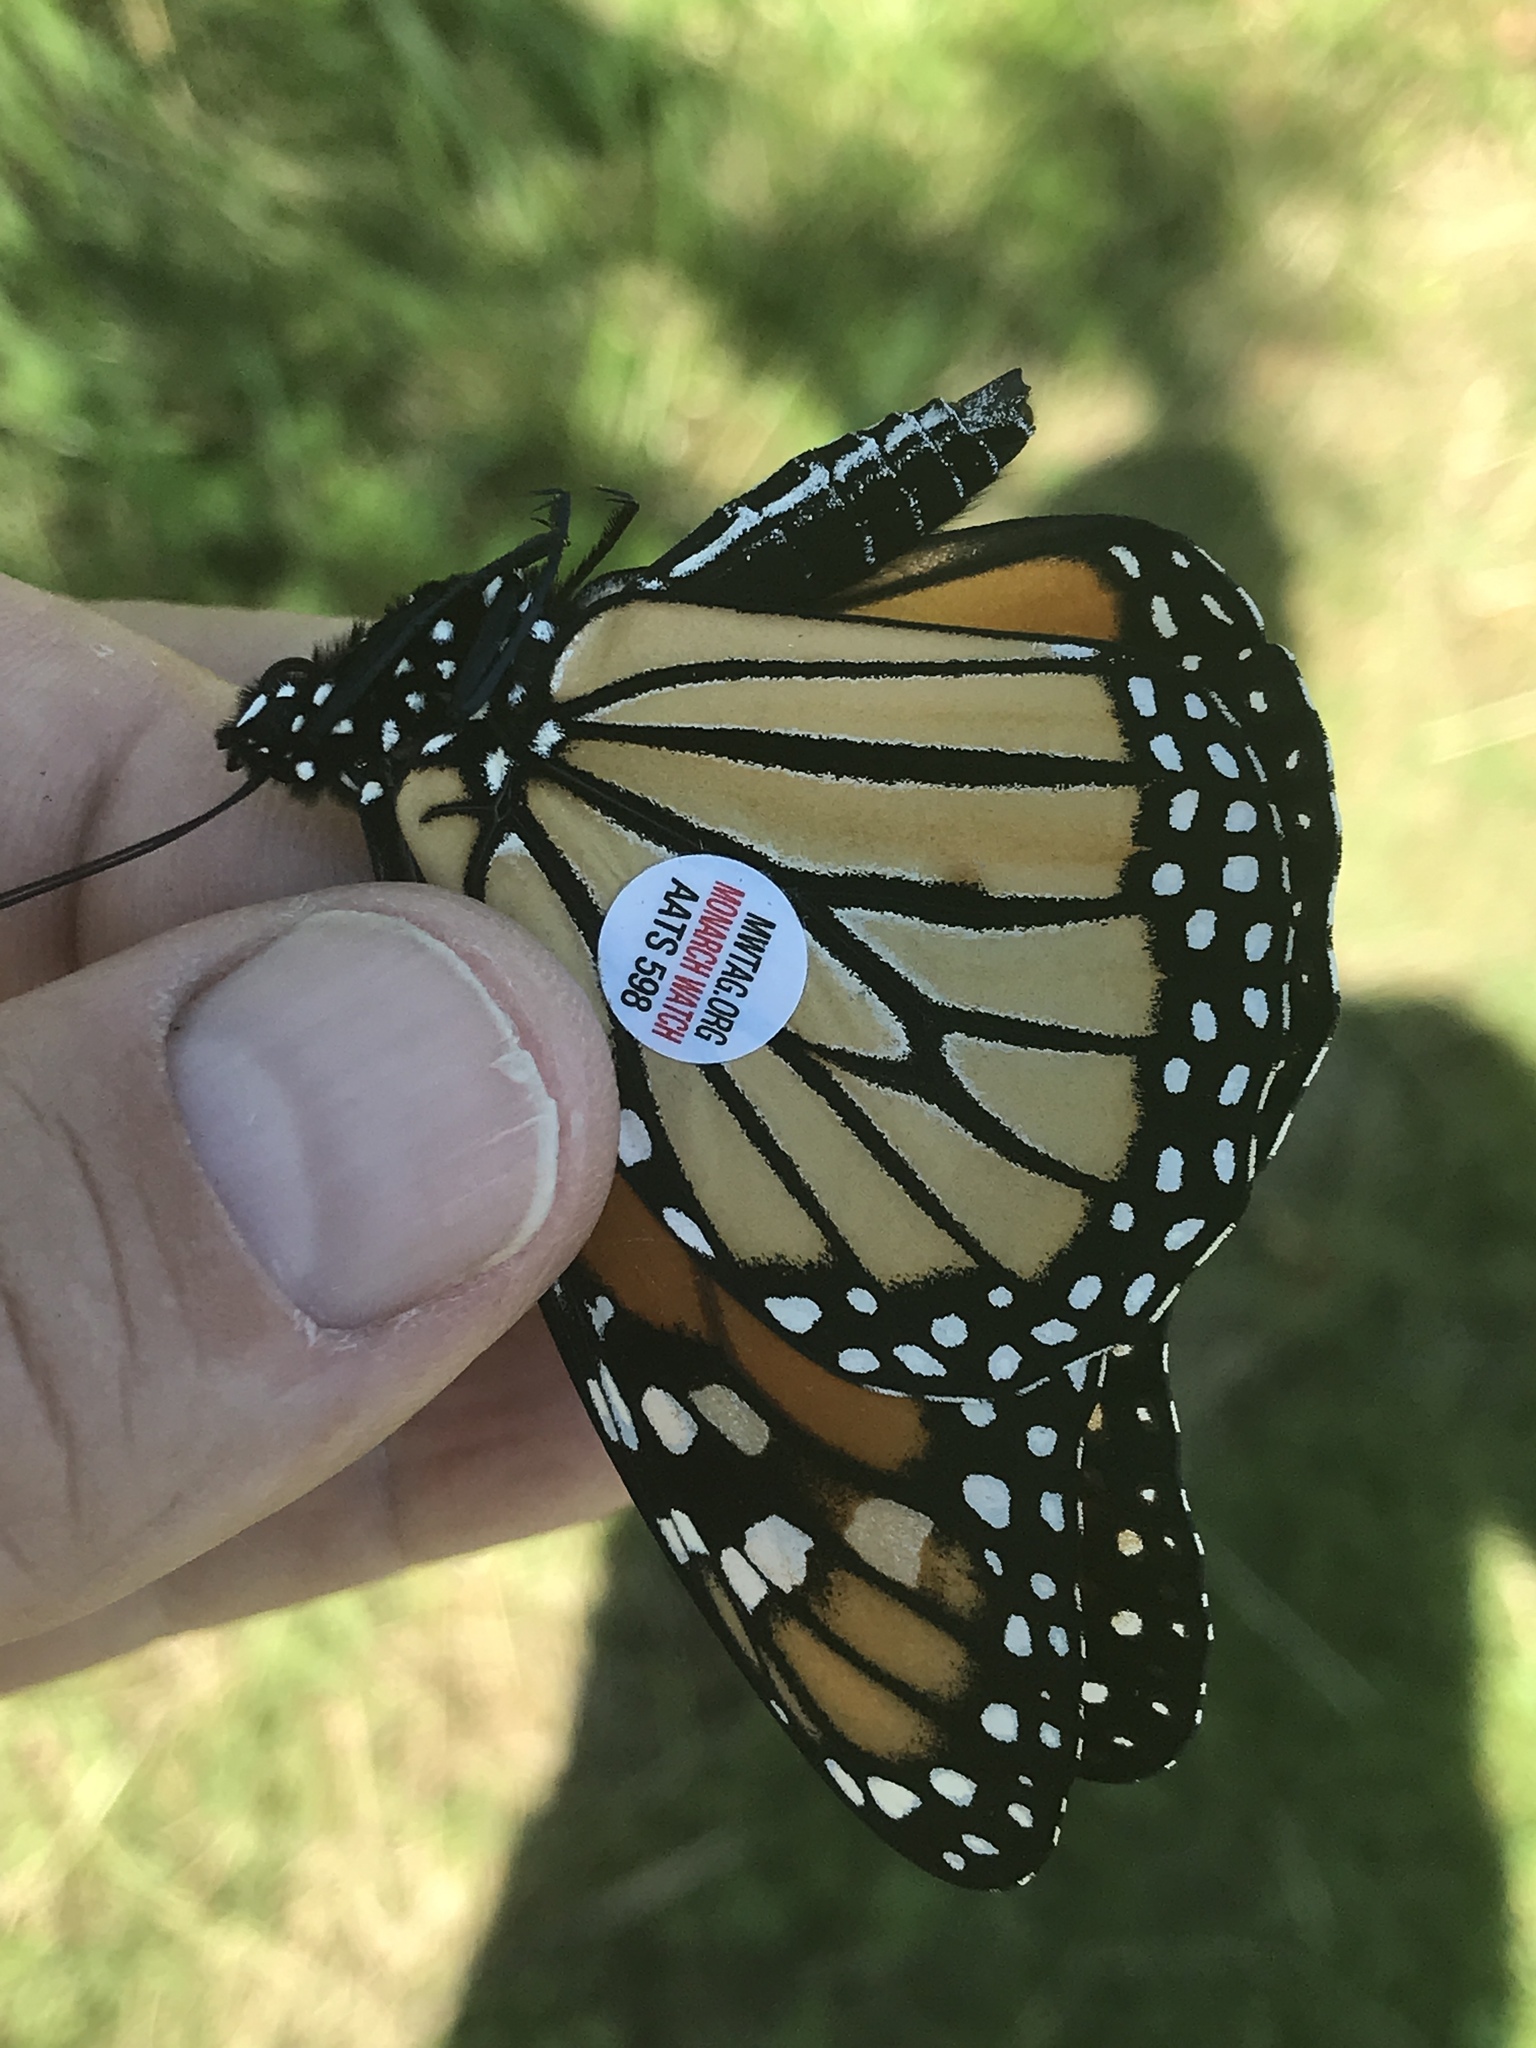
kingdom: Animalia
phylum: Arthropoda
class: Insecta
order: Lepidoptera
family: Nymphalidae
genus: Danaus
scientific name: Danaus plexippus
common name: Monarch
